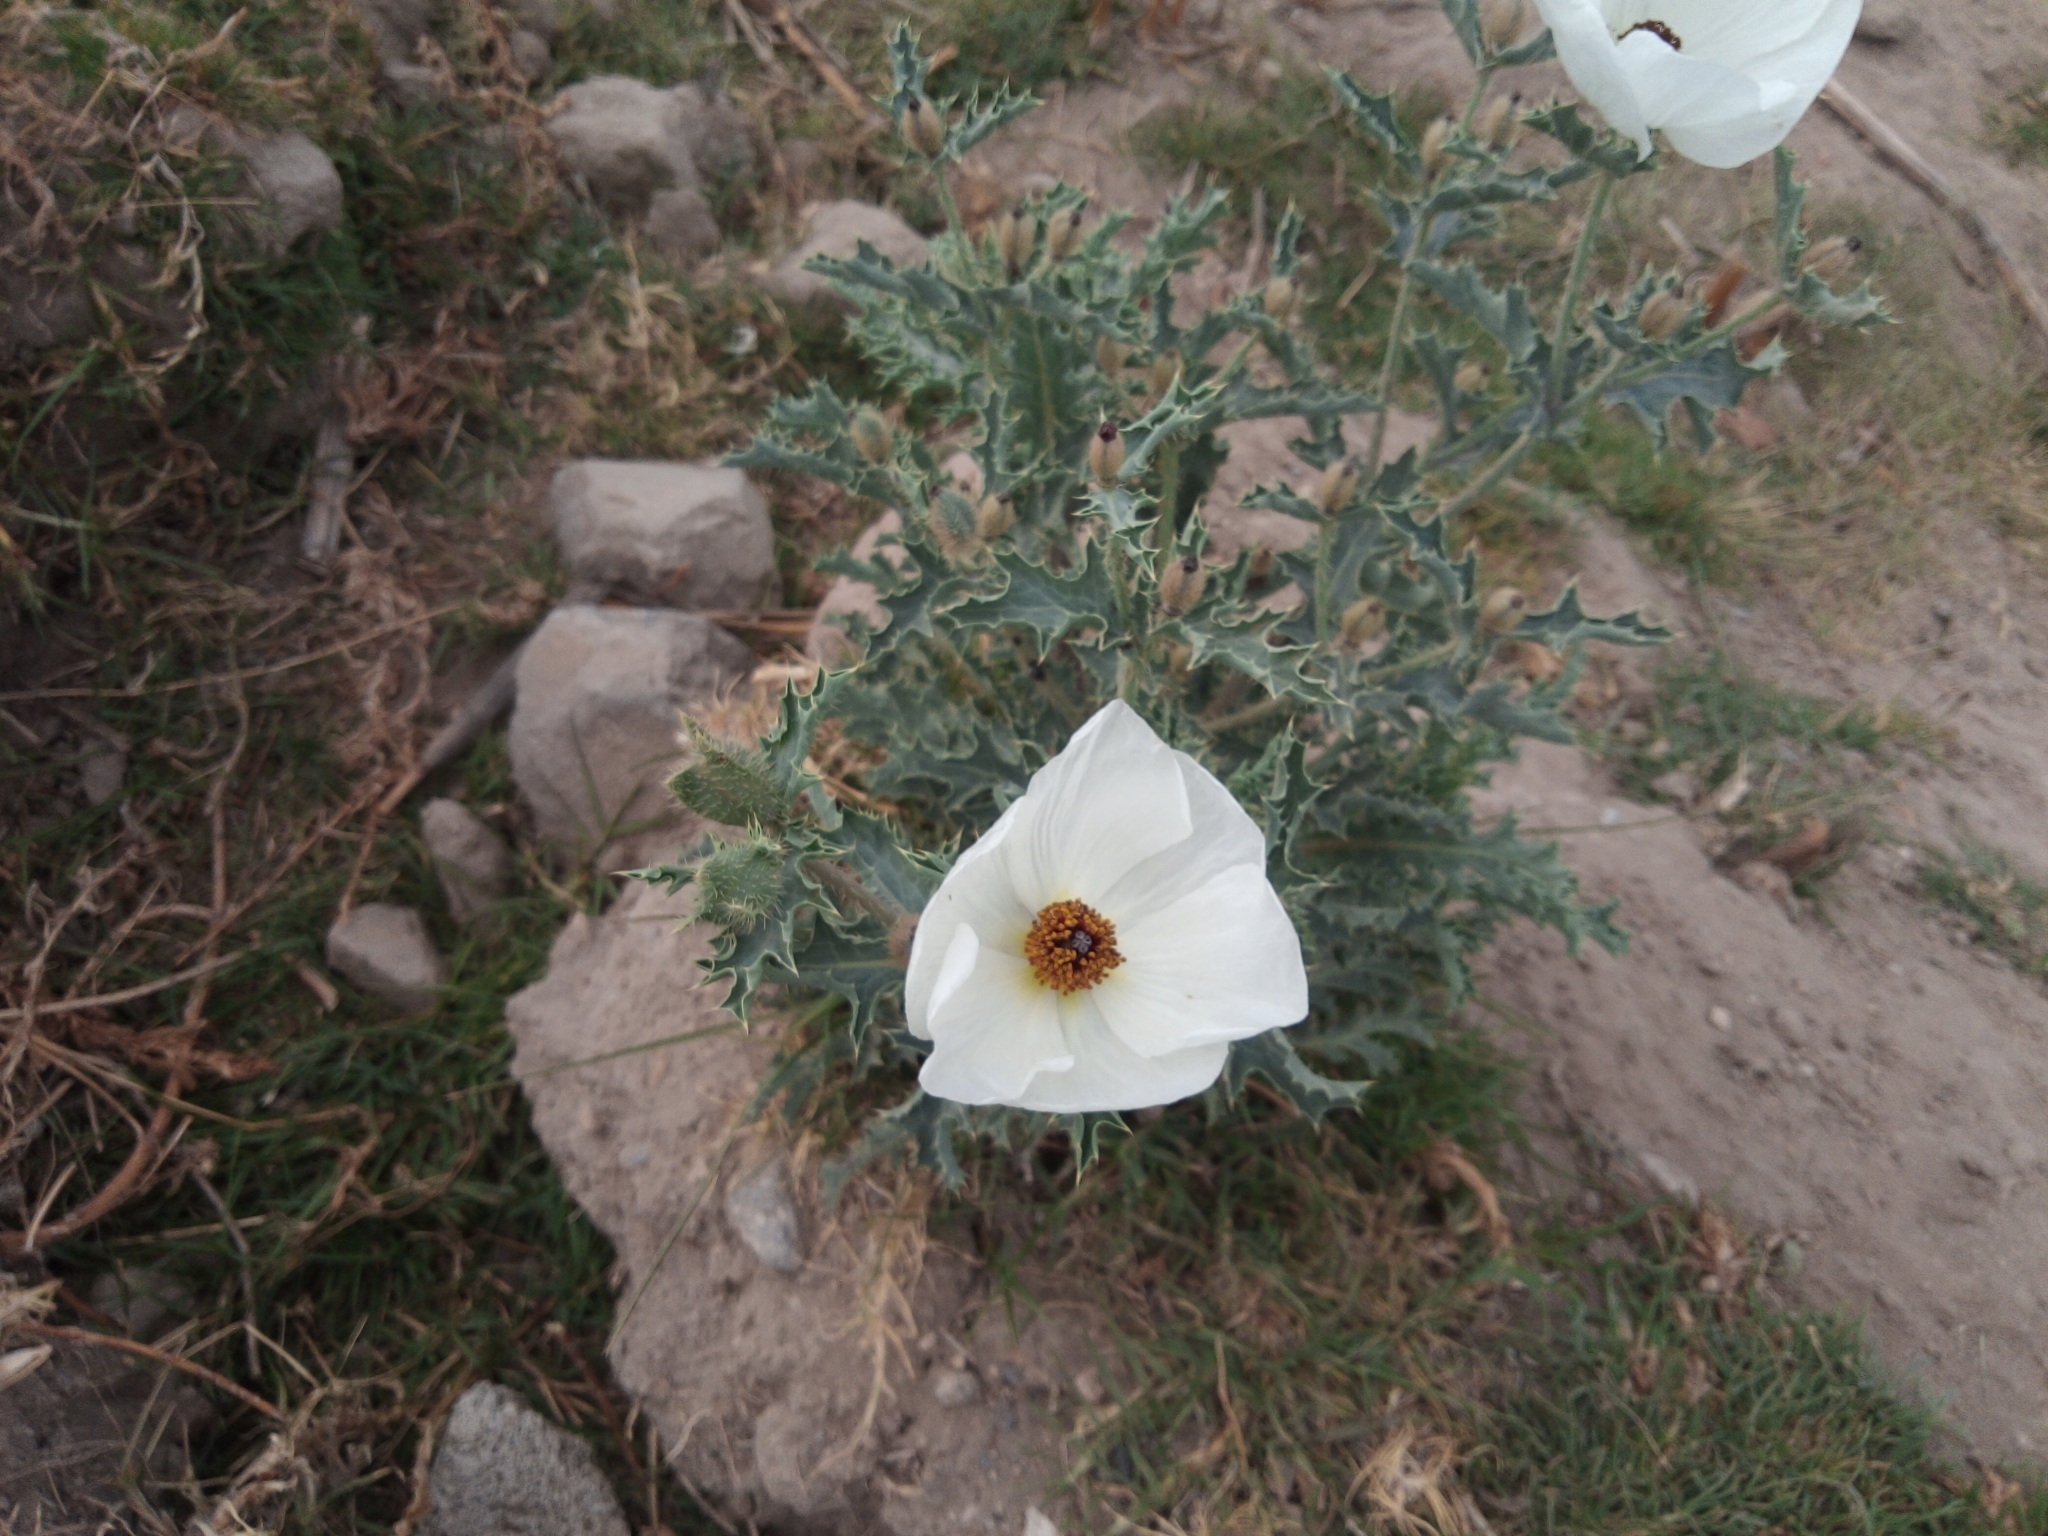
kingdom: Plantae
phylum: Tracheophyta
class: Magnoliopsida
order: Ranunculales
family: Papaveraceae
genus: Argemone
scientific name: Argemone platyceras
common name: Crested-poppy
